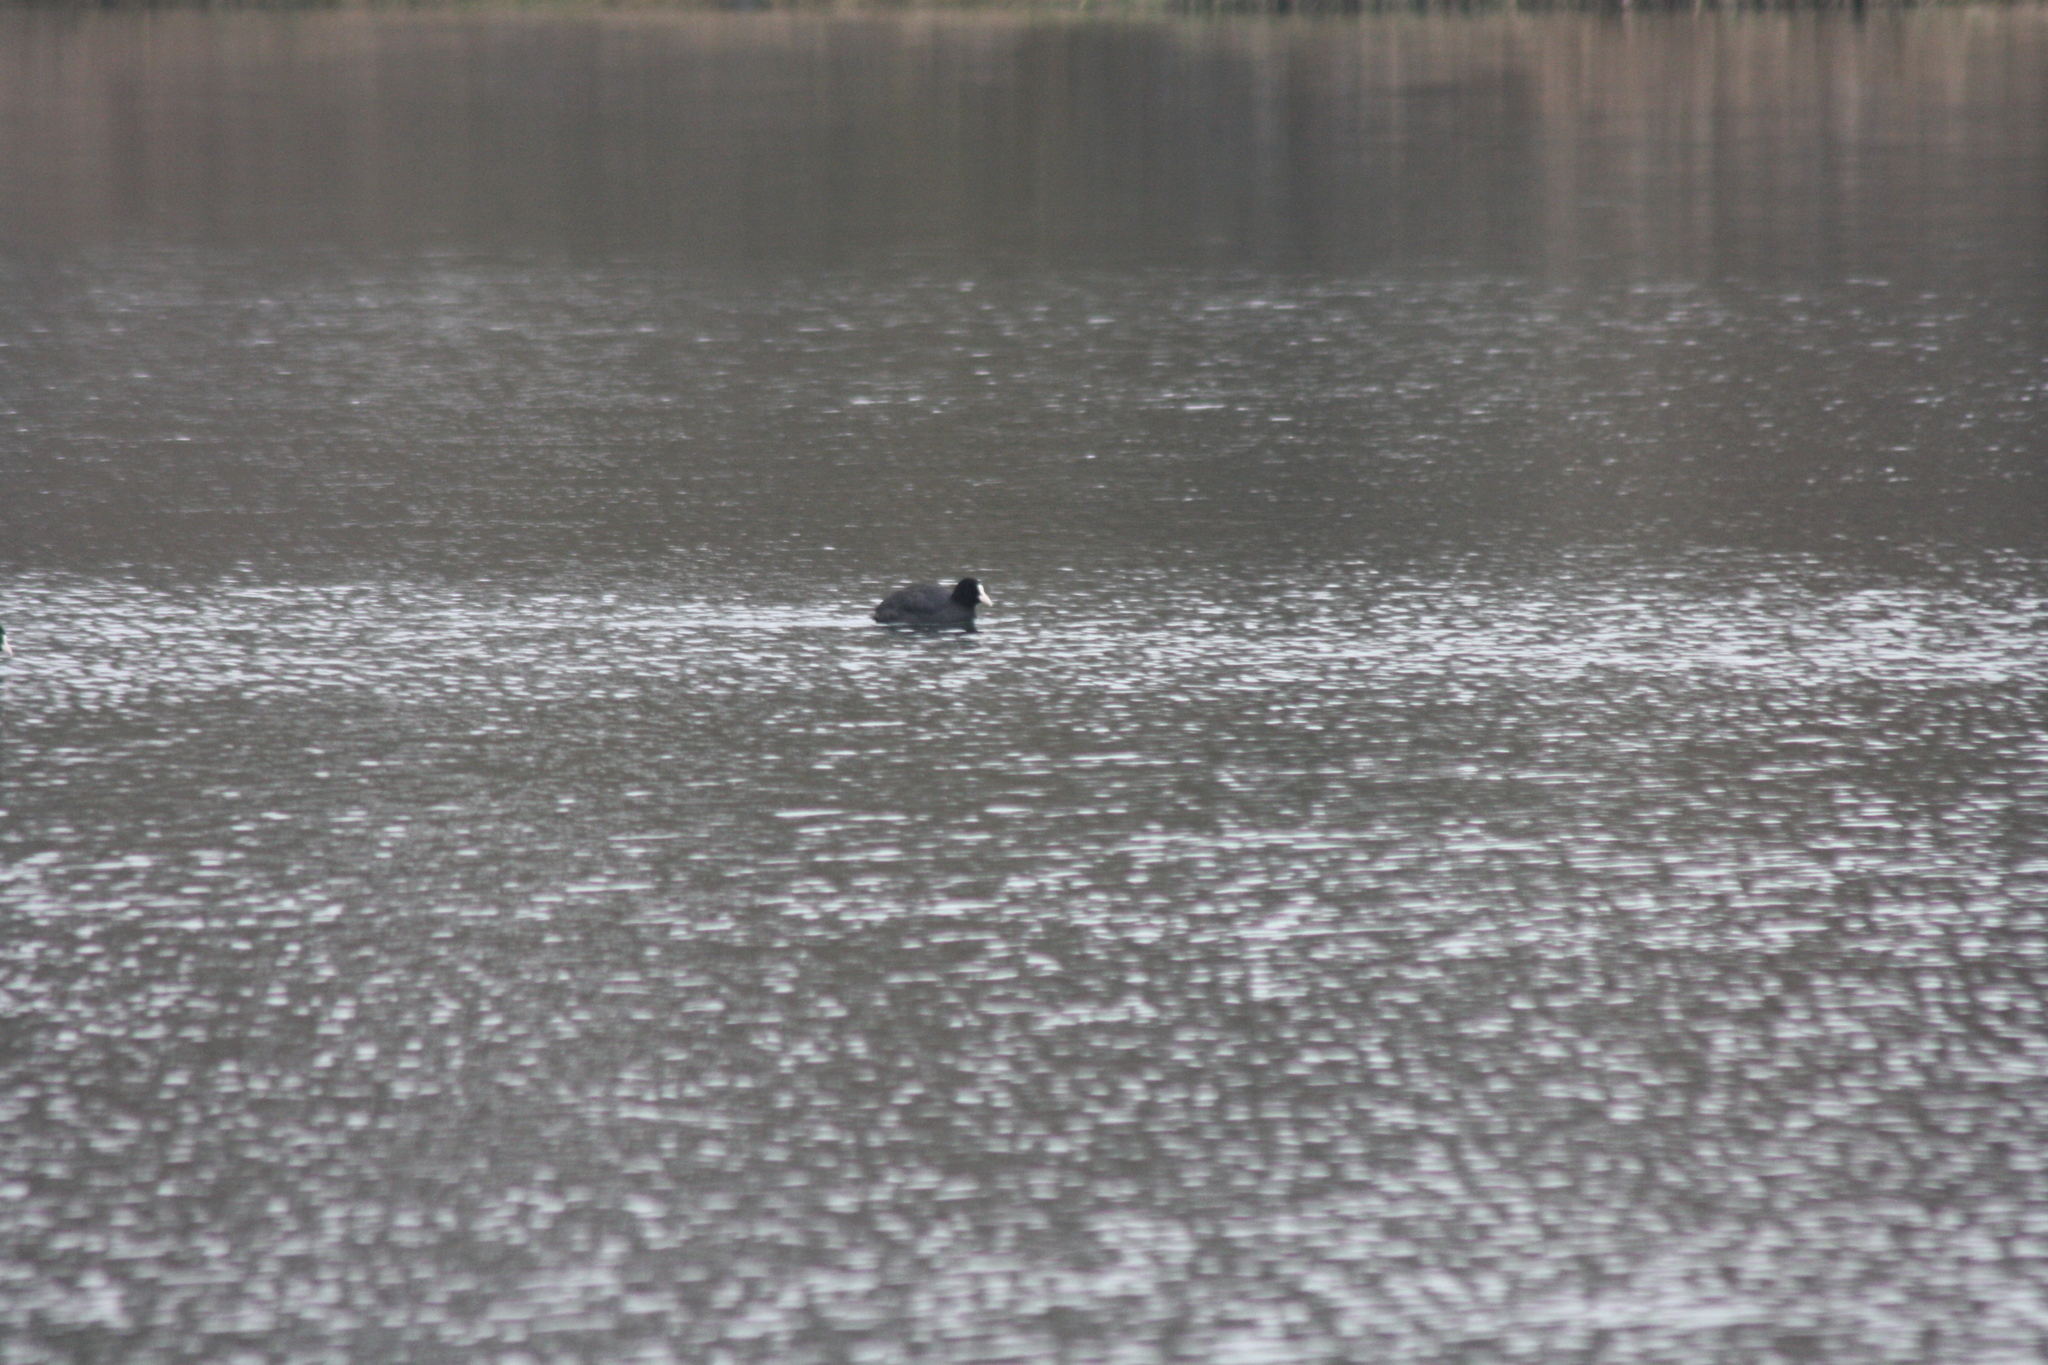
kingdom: Animalia
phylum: Chordata
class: Aves
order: Gruiformes
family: Rallidae
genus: Fulica
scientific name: Fulica atra
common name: Eurasian coot
